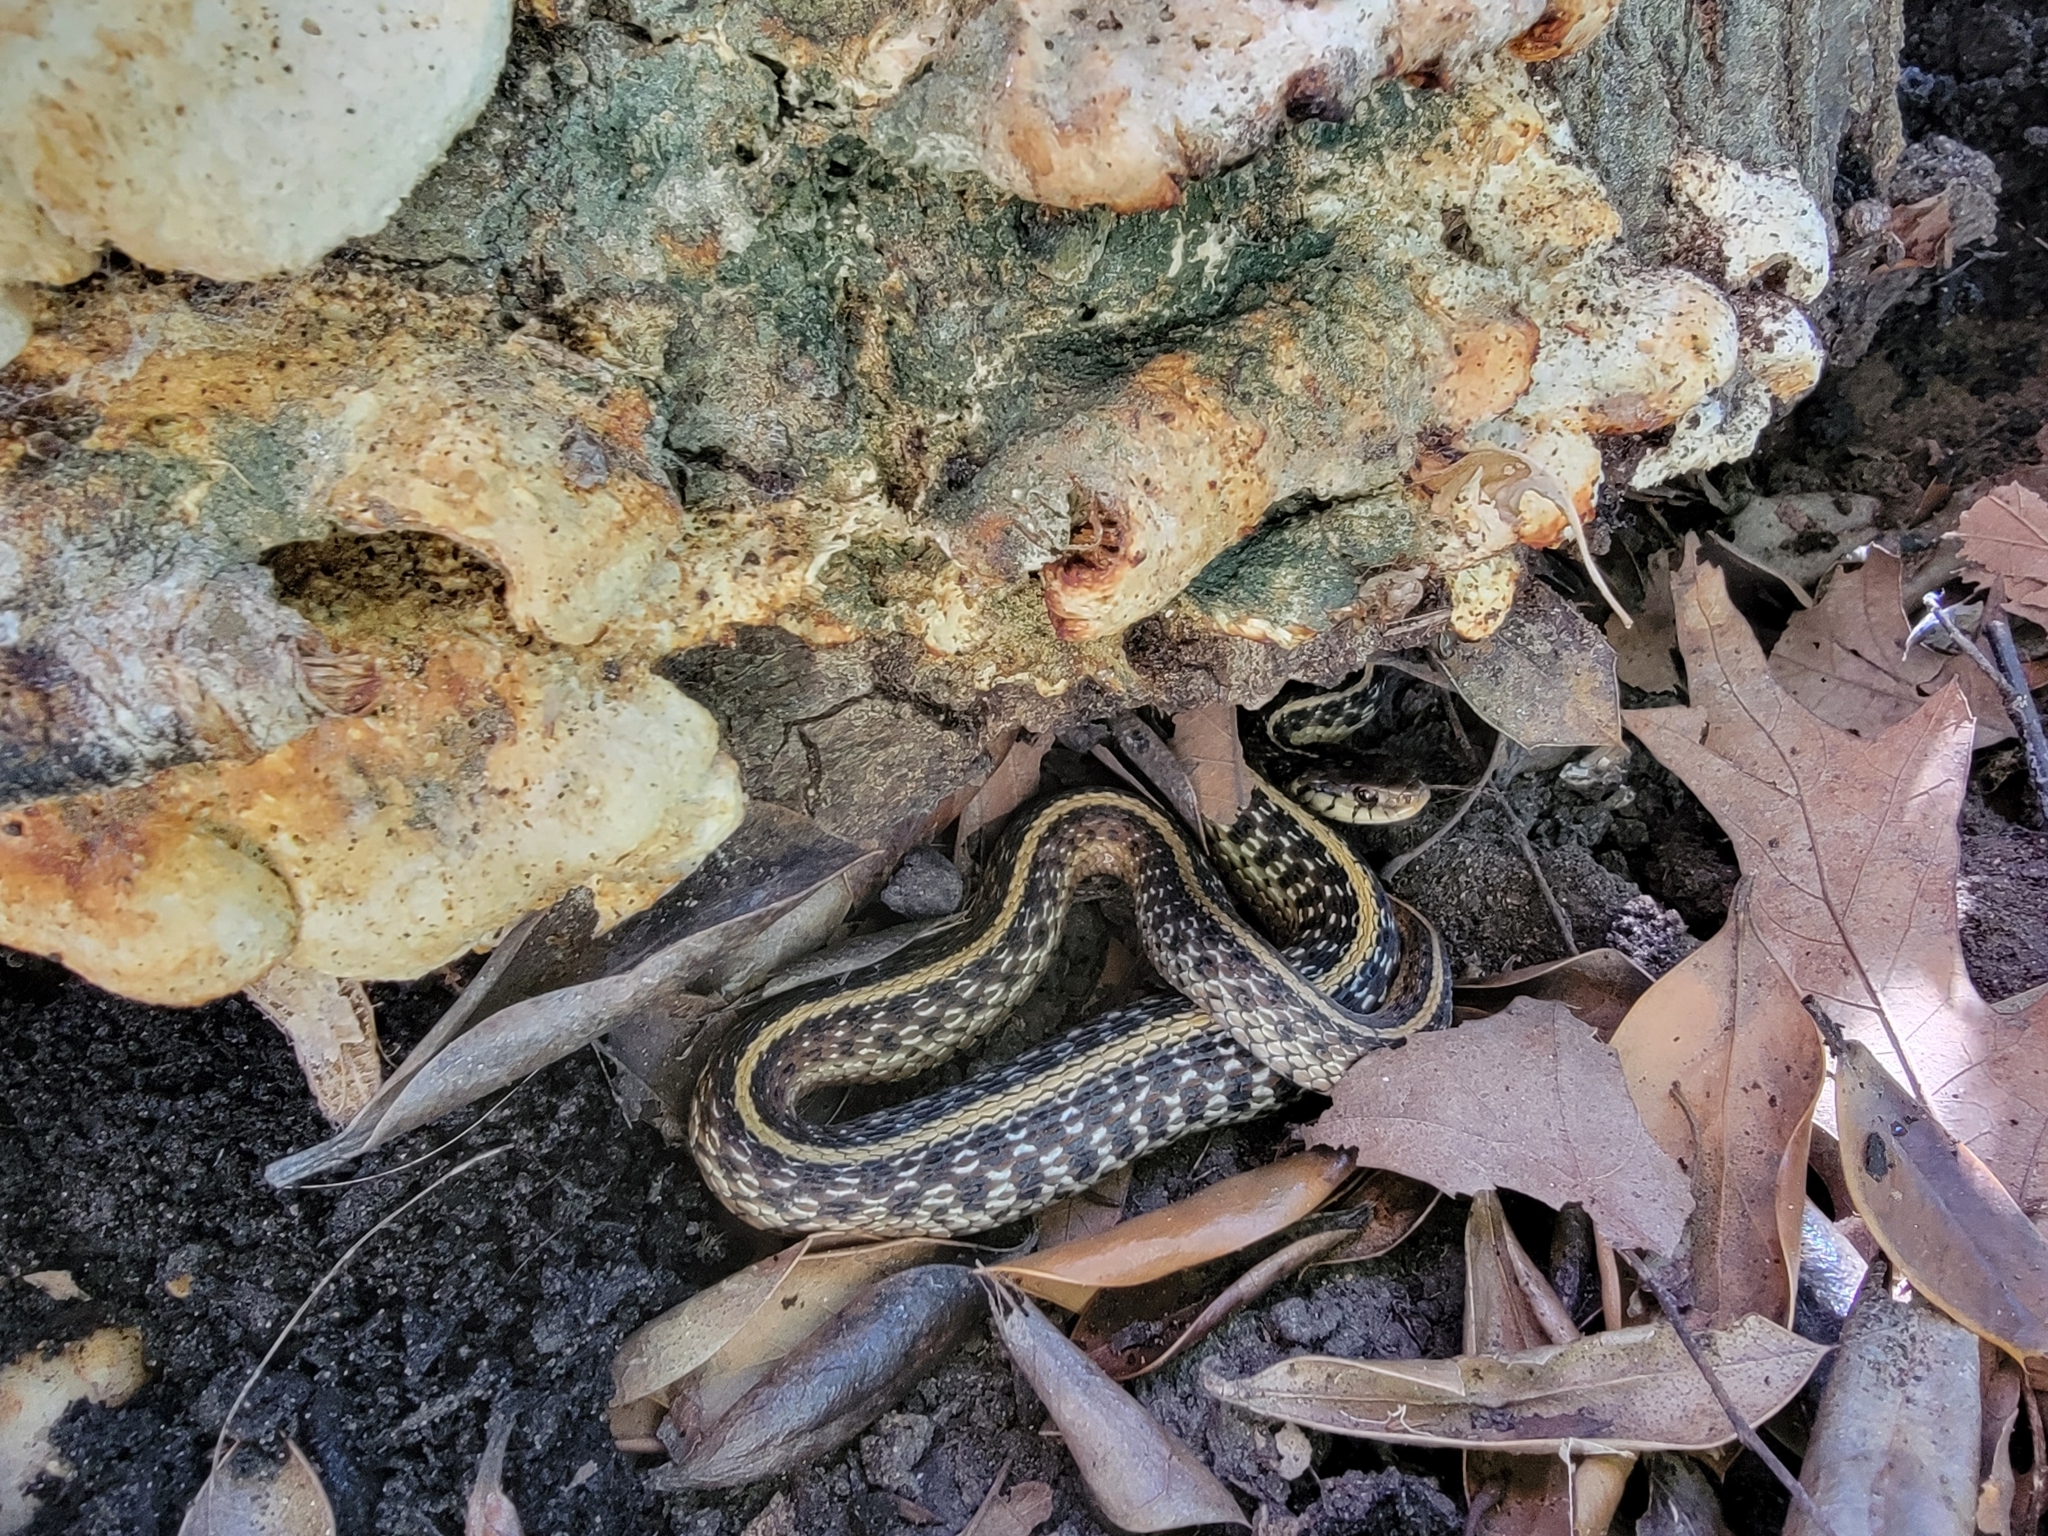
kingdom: Animalia
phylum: Chordata
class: Squamata
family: Colubridae
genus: Thamnophis
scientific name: Thamnophis sirtalis
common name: Common garter snake
